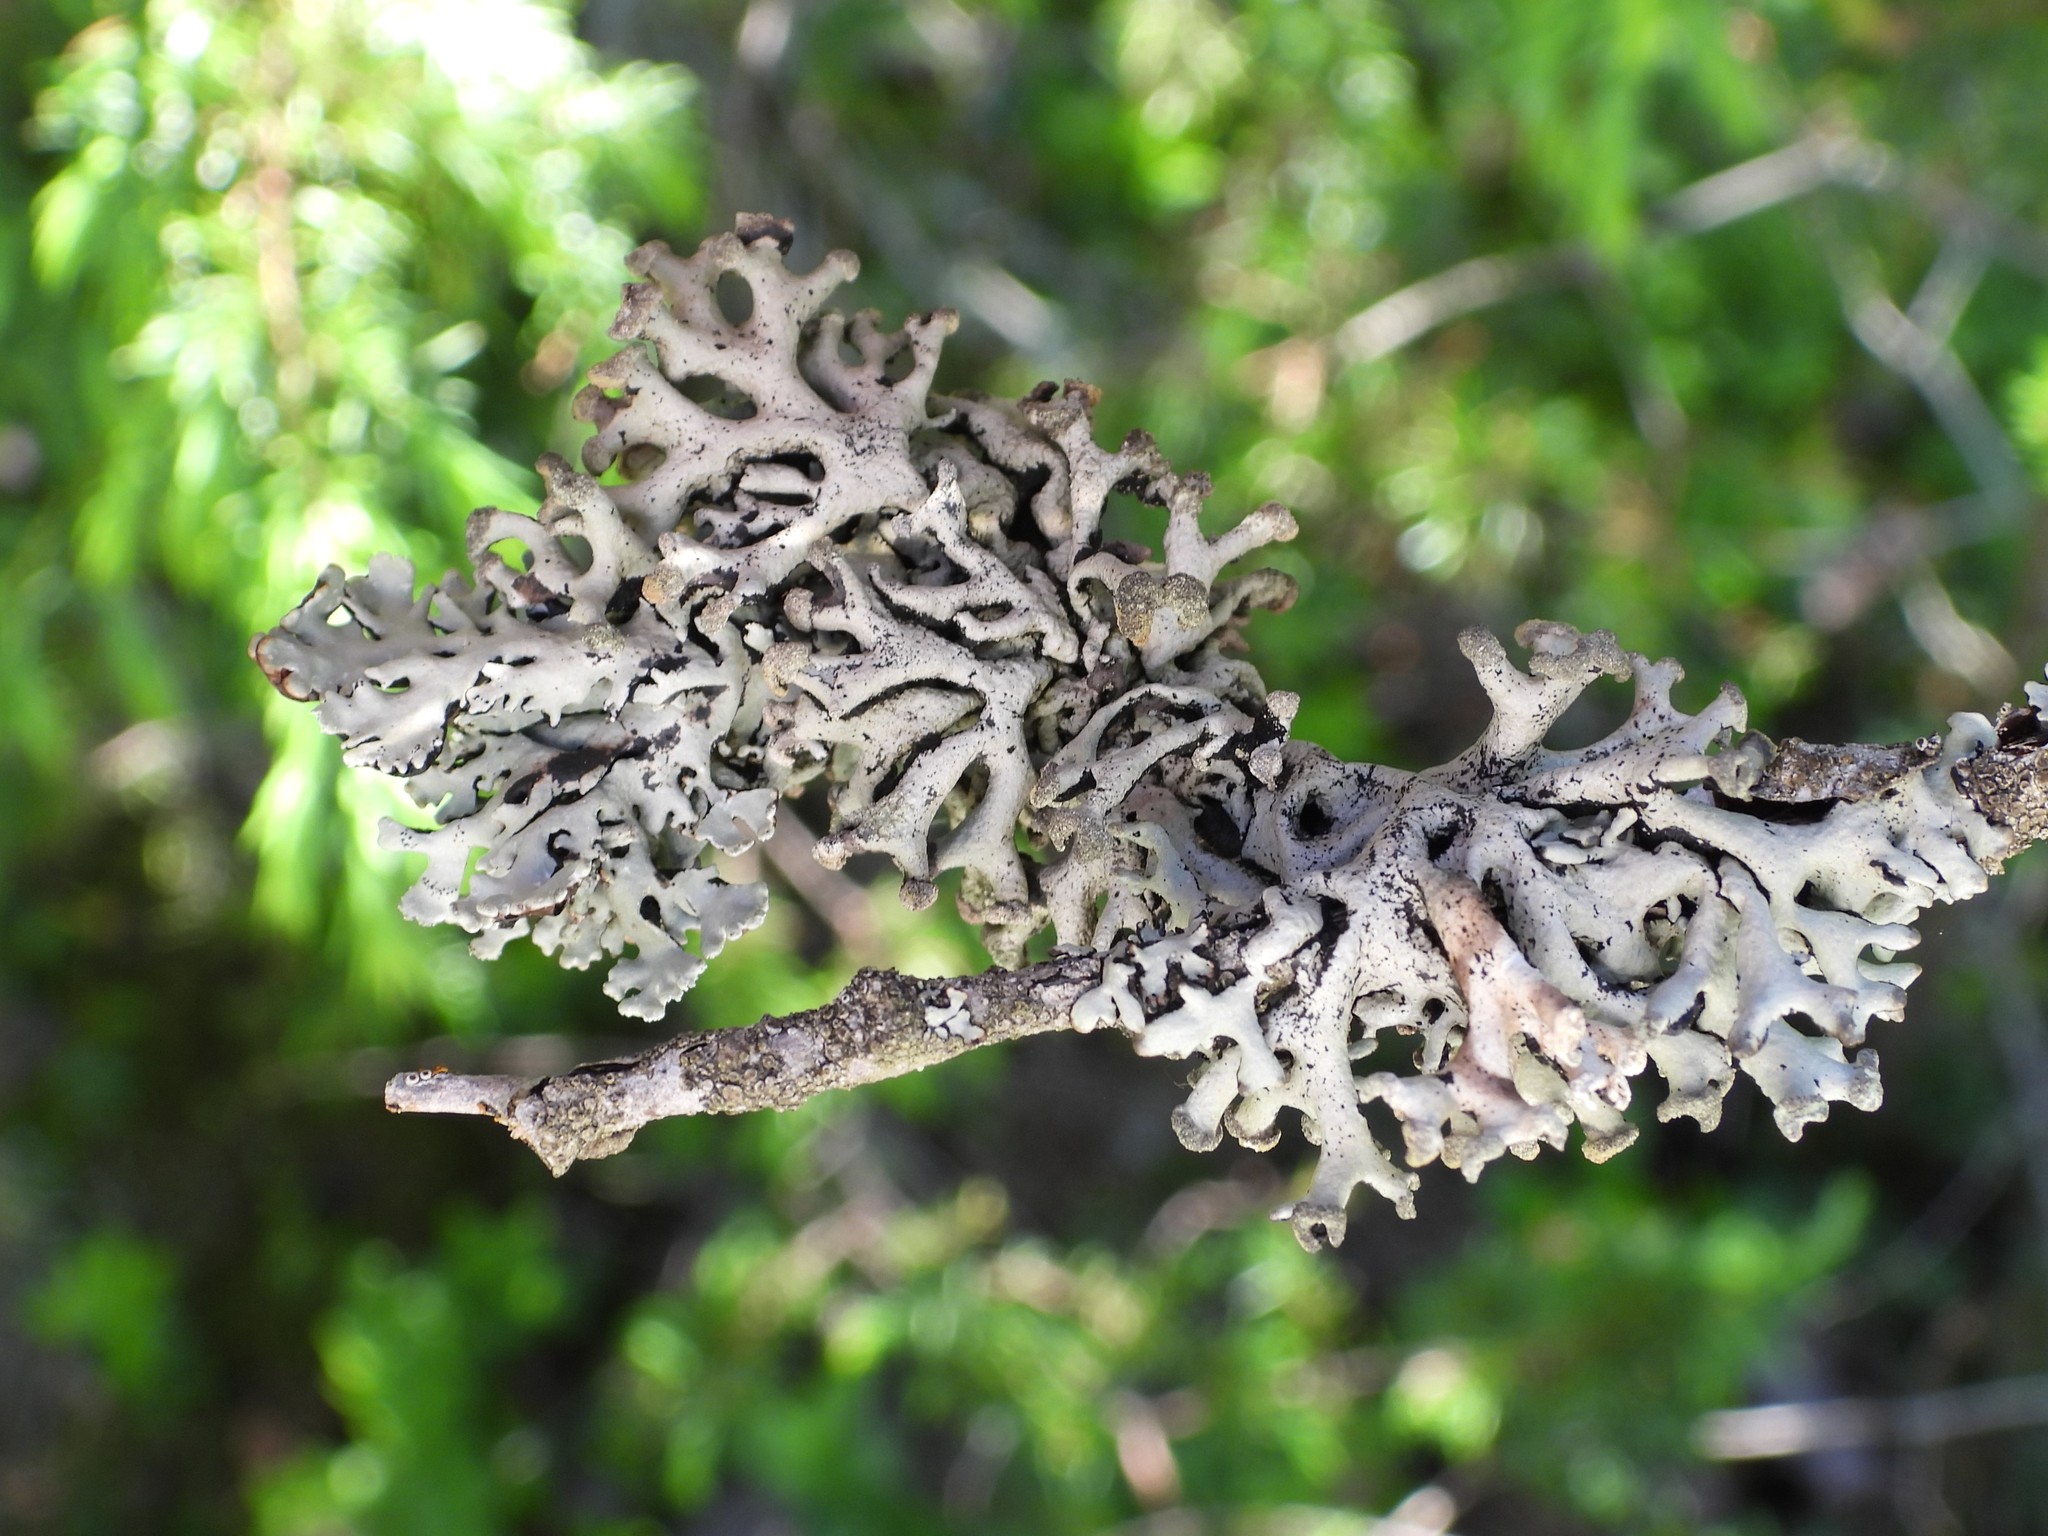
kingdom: Fungi
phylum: Ascomycota
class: Lecanoromycetes
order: Lecanorales
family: Parmeliaceae
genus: Hypogymnia
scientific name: Hypogymnia tubulosa
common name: Powder-headed tube lichen
